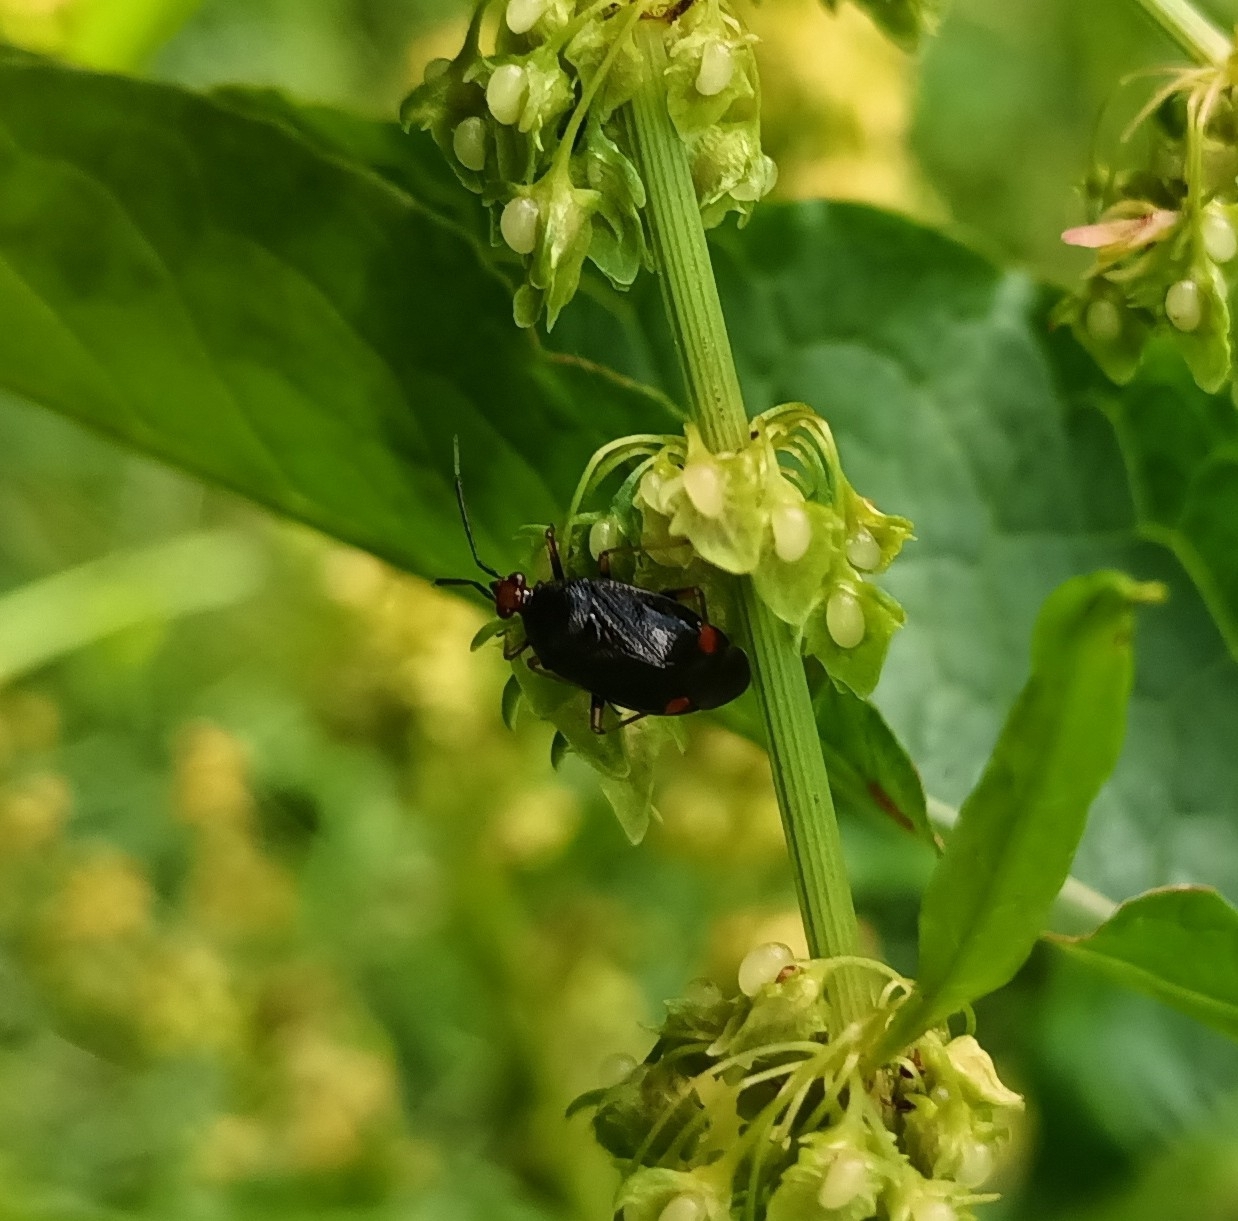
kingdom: Animalia
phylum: Arthropoda
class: Insecta
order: Hemiptera
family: Miridae
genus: Deraeocoris
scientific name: Deraeocoris ruber
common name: Plant bug
